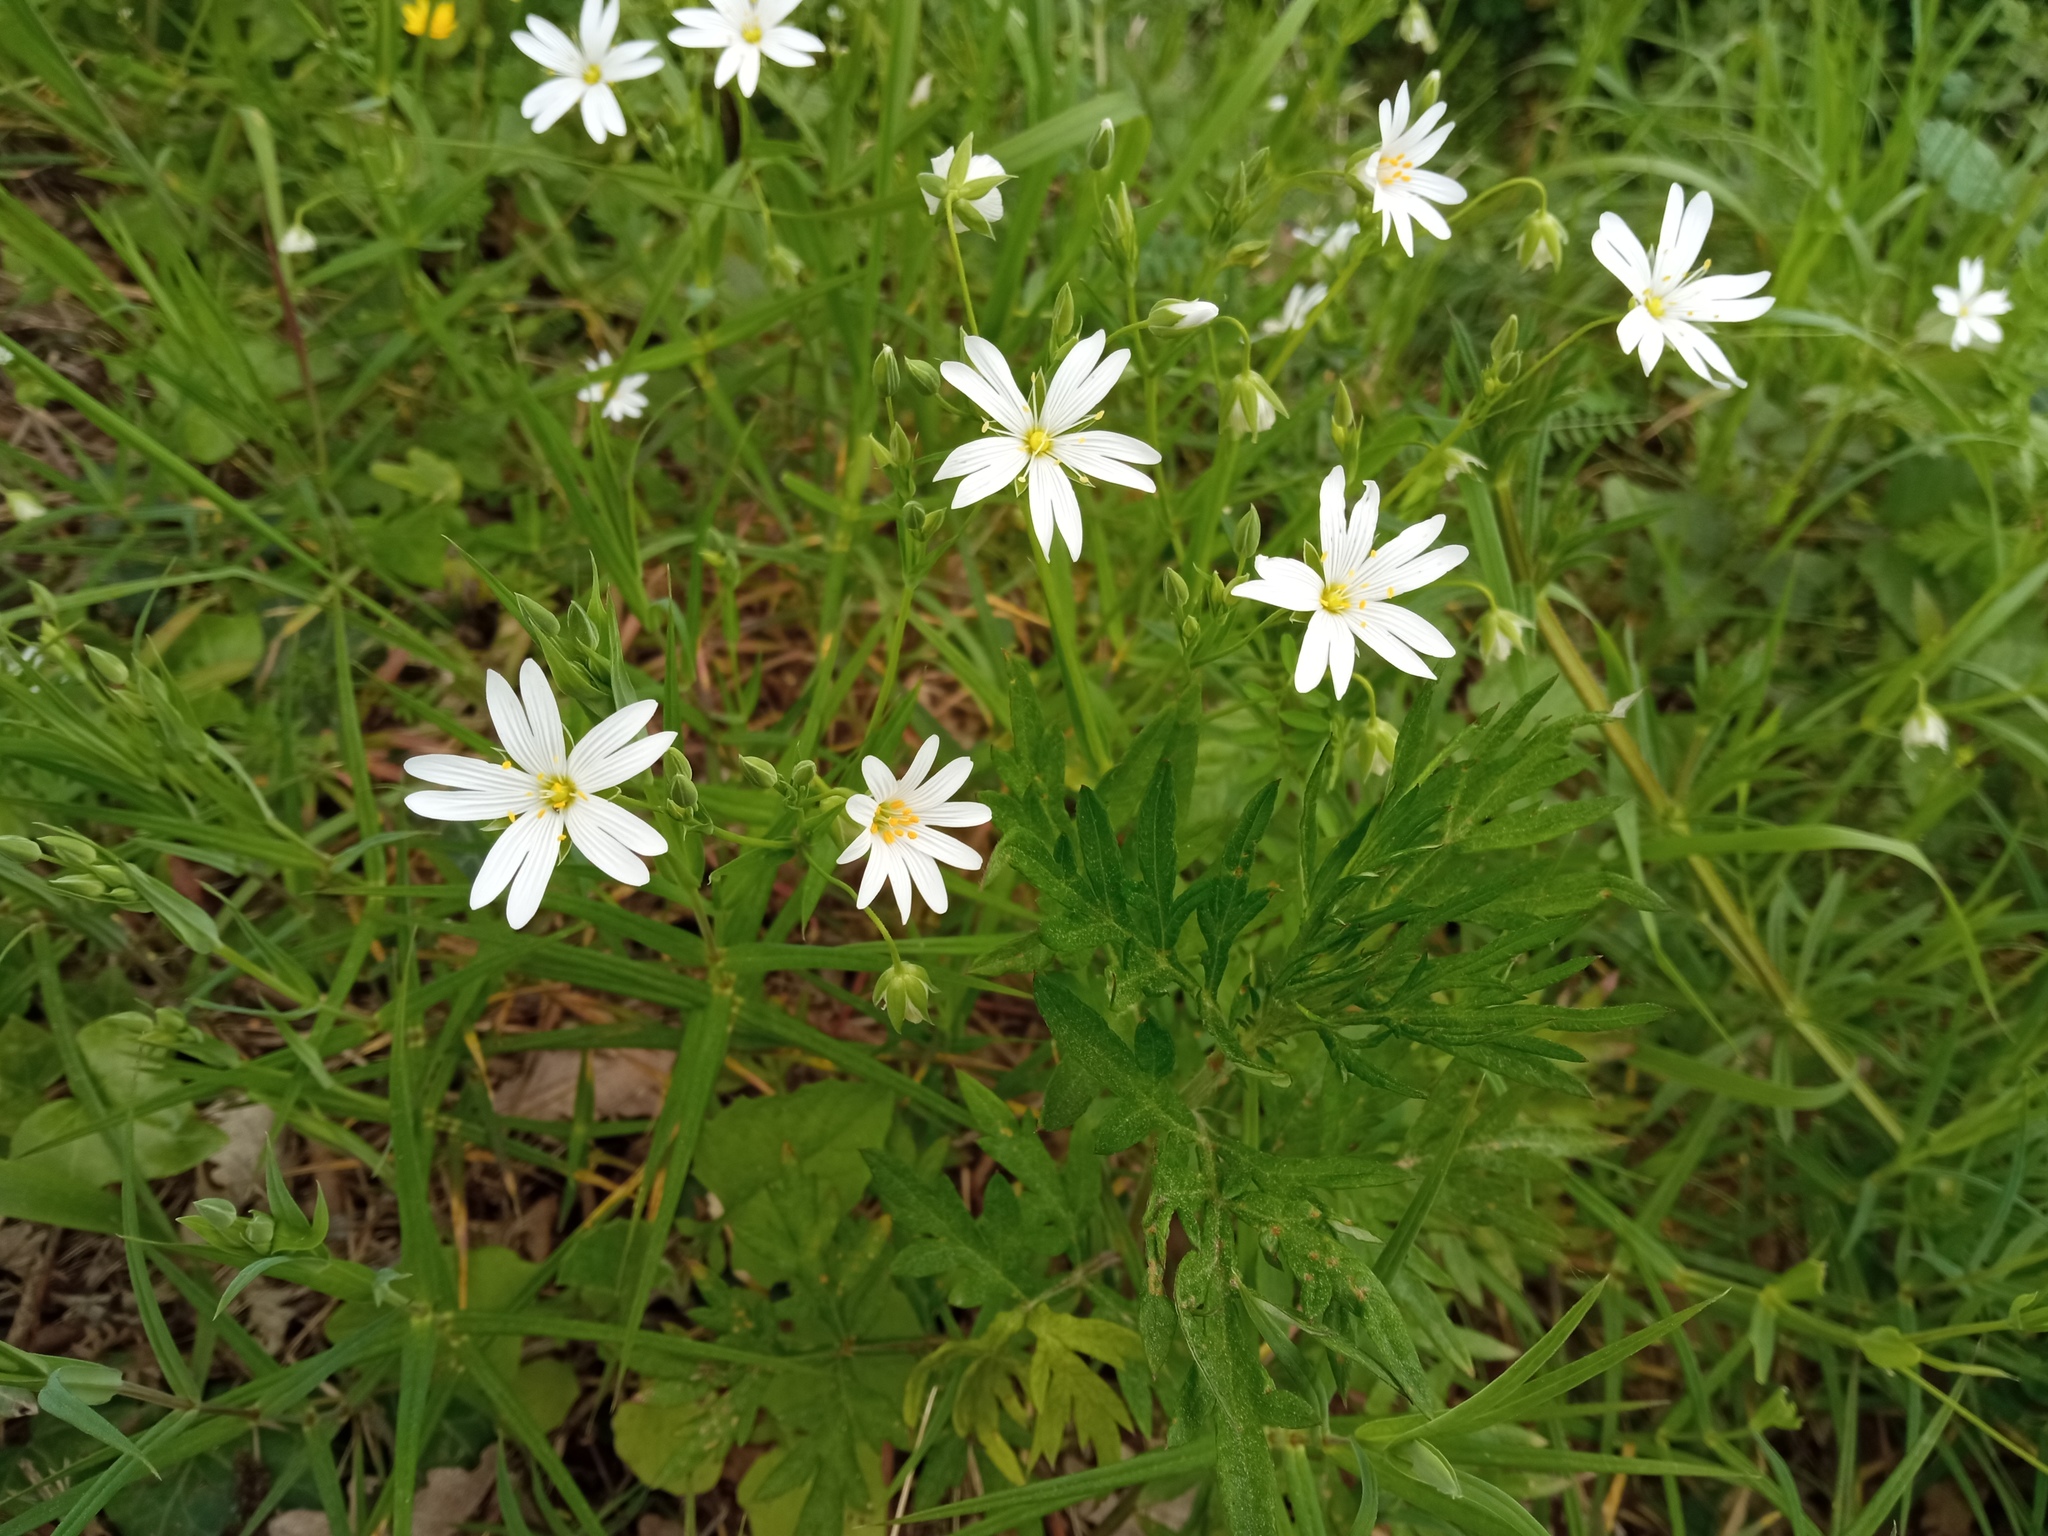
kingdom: Plantae
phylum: Tracheophyta
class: Magnoliopsida
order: Caryophyllales
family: Caryophyllaceae
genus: Rabelera
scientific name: Rabelera holostea
